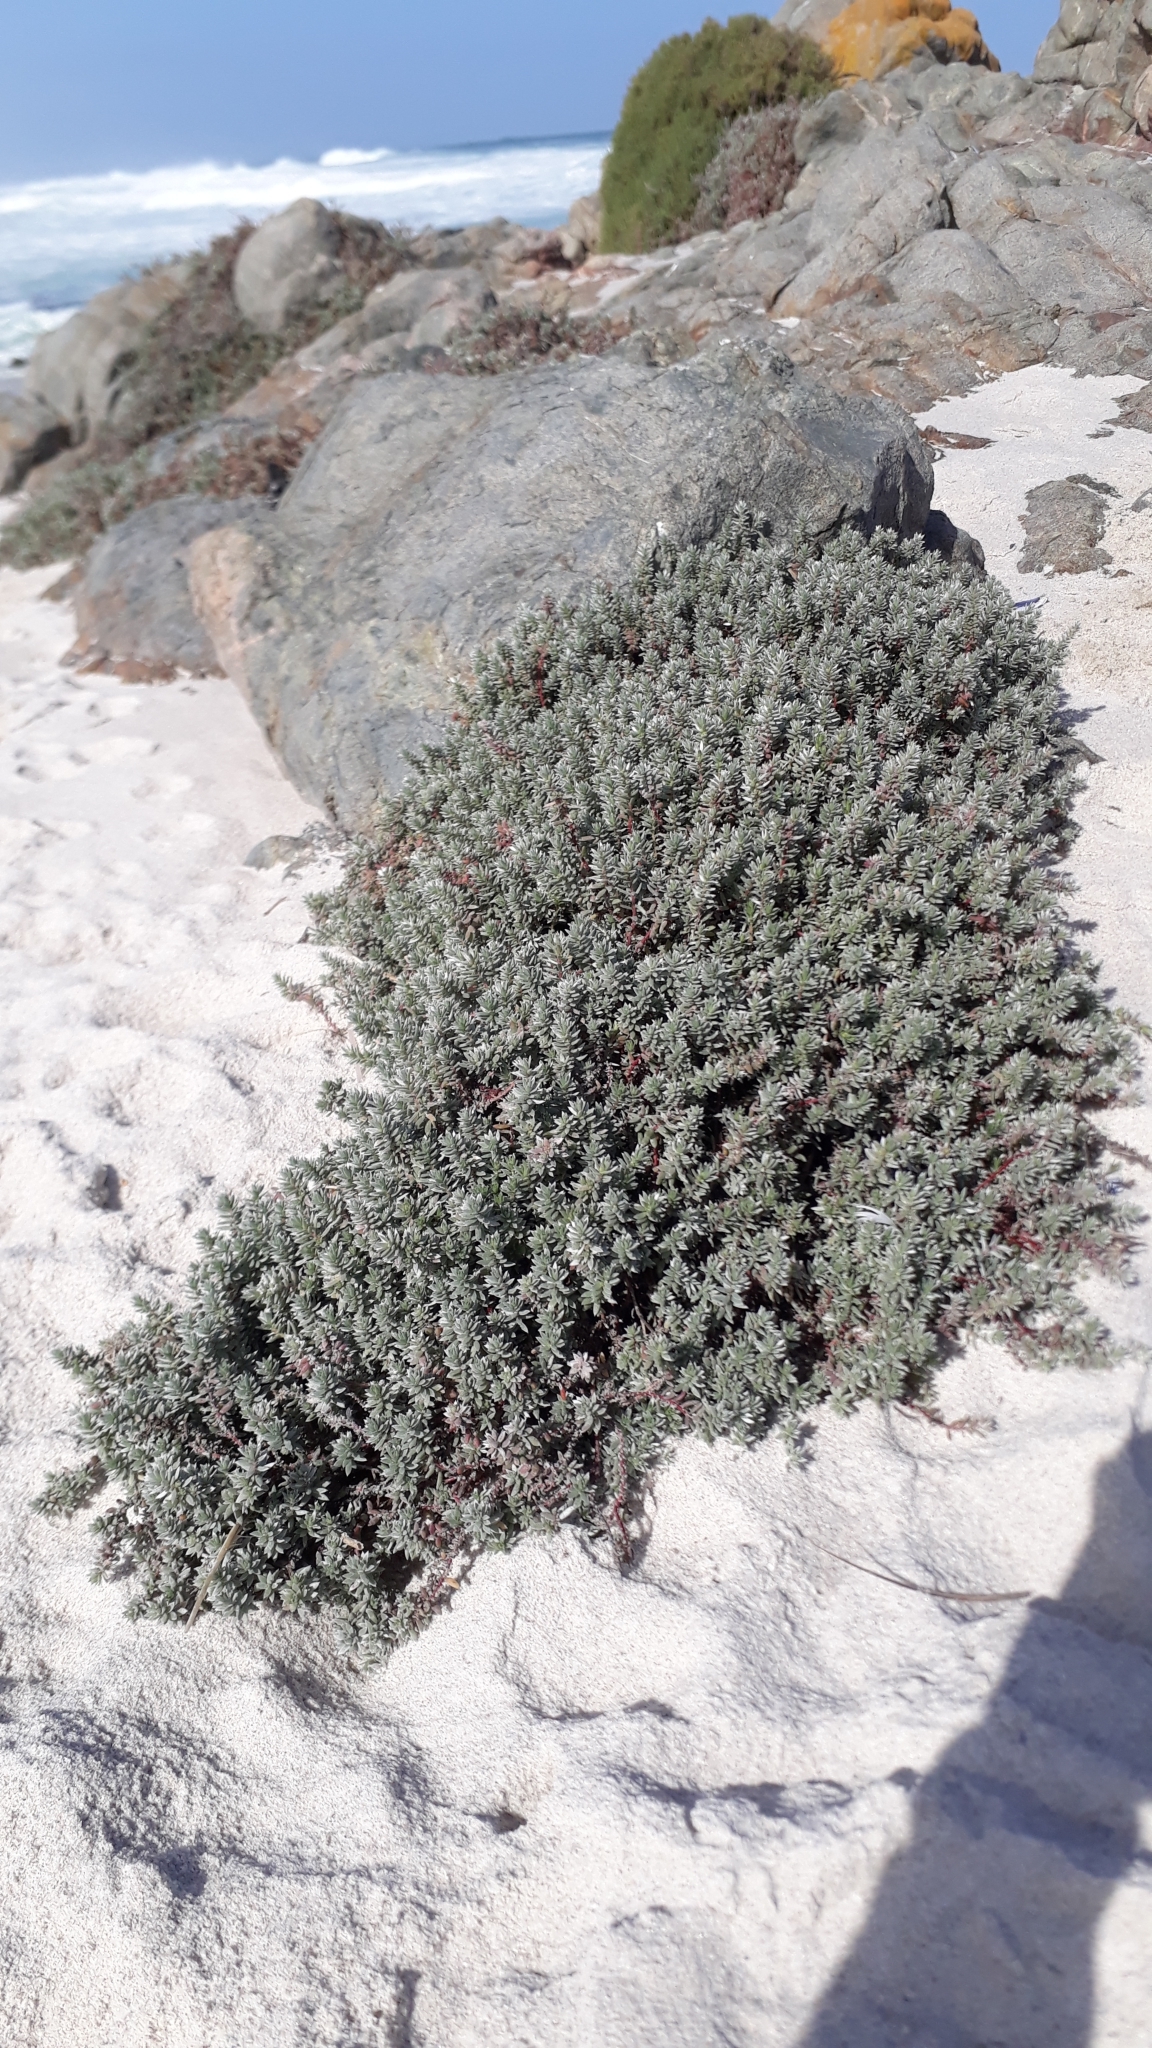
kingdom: Plantae
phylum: Tracheophyta
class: Magnoliopsida
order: Caryophyllales
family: Amaranthaceae
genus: Chenolea
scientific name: Chenolea diffusa
